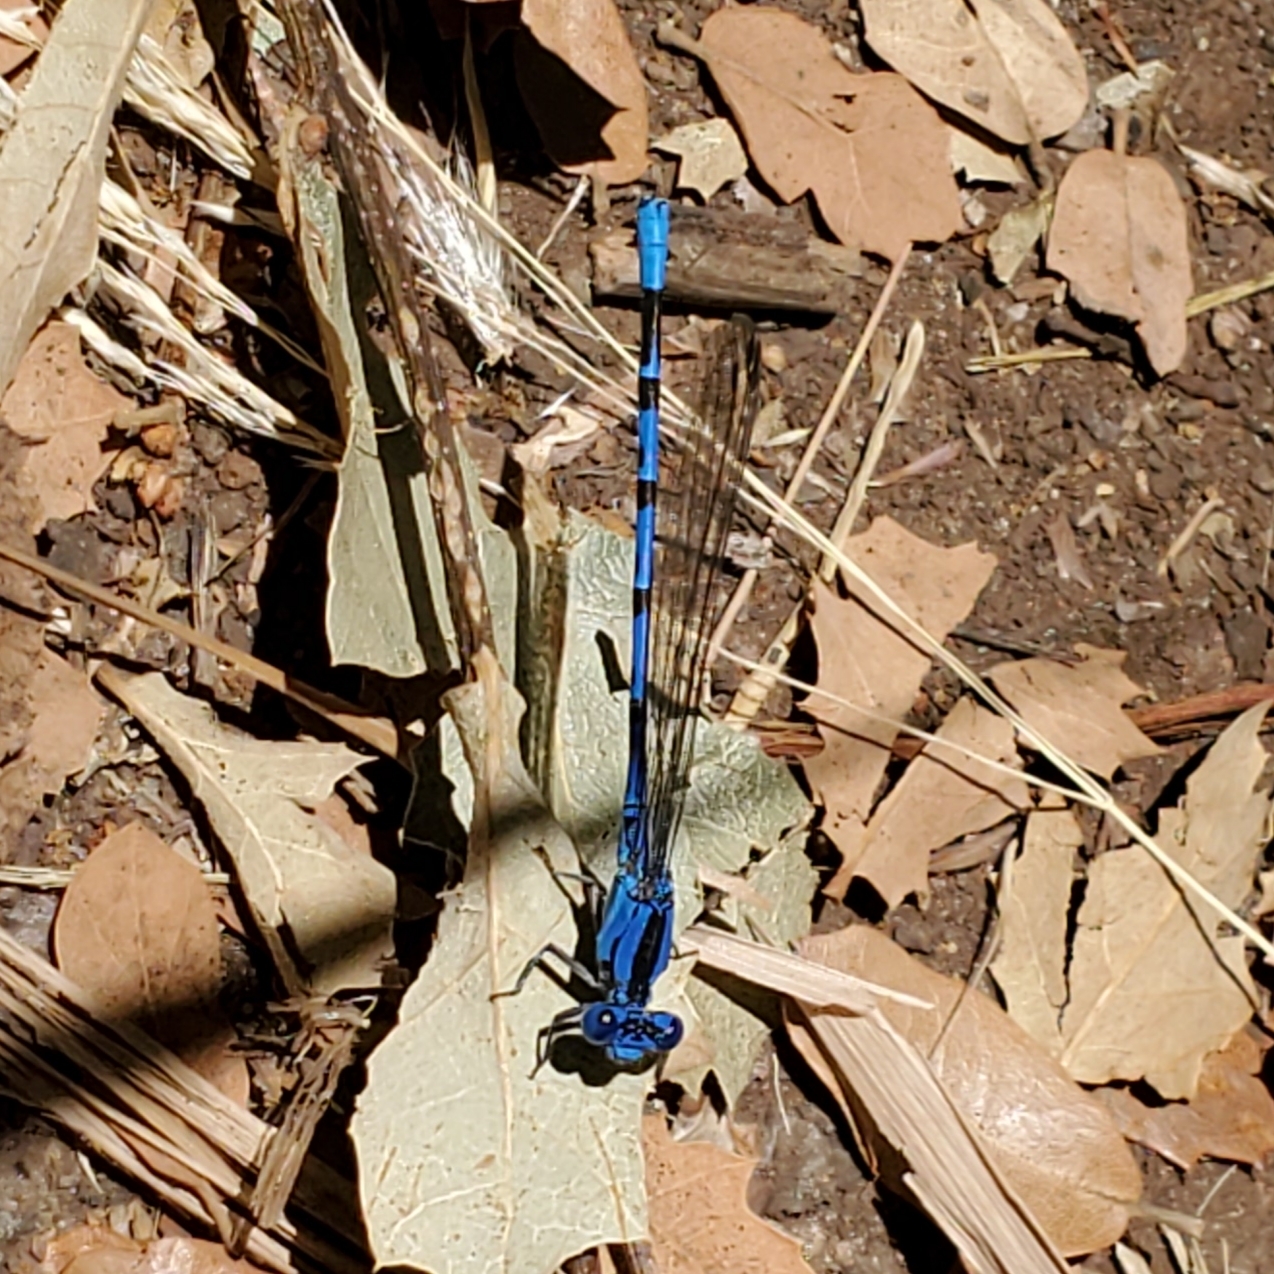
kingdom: Animalia
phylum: Arthropoda
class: Insecta
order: Odonata
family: Coenagrionidae
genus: Argia
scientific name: Argia vivida
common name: Vivid dancer
